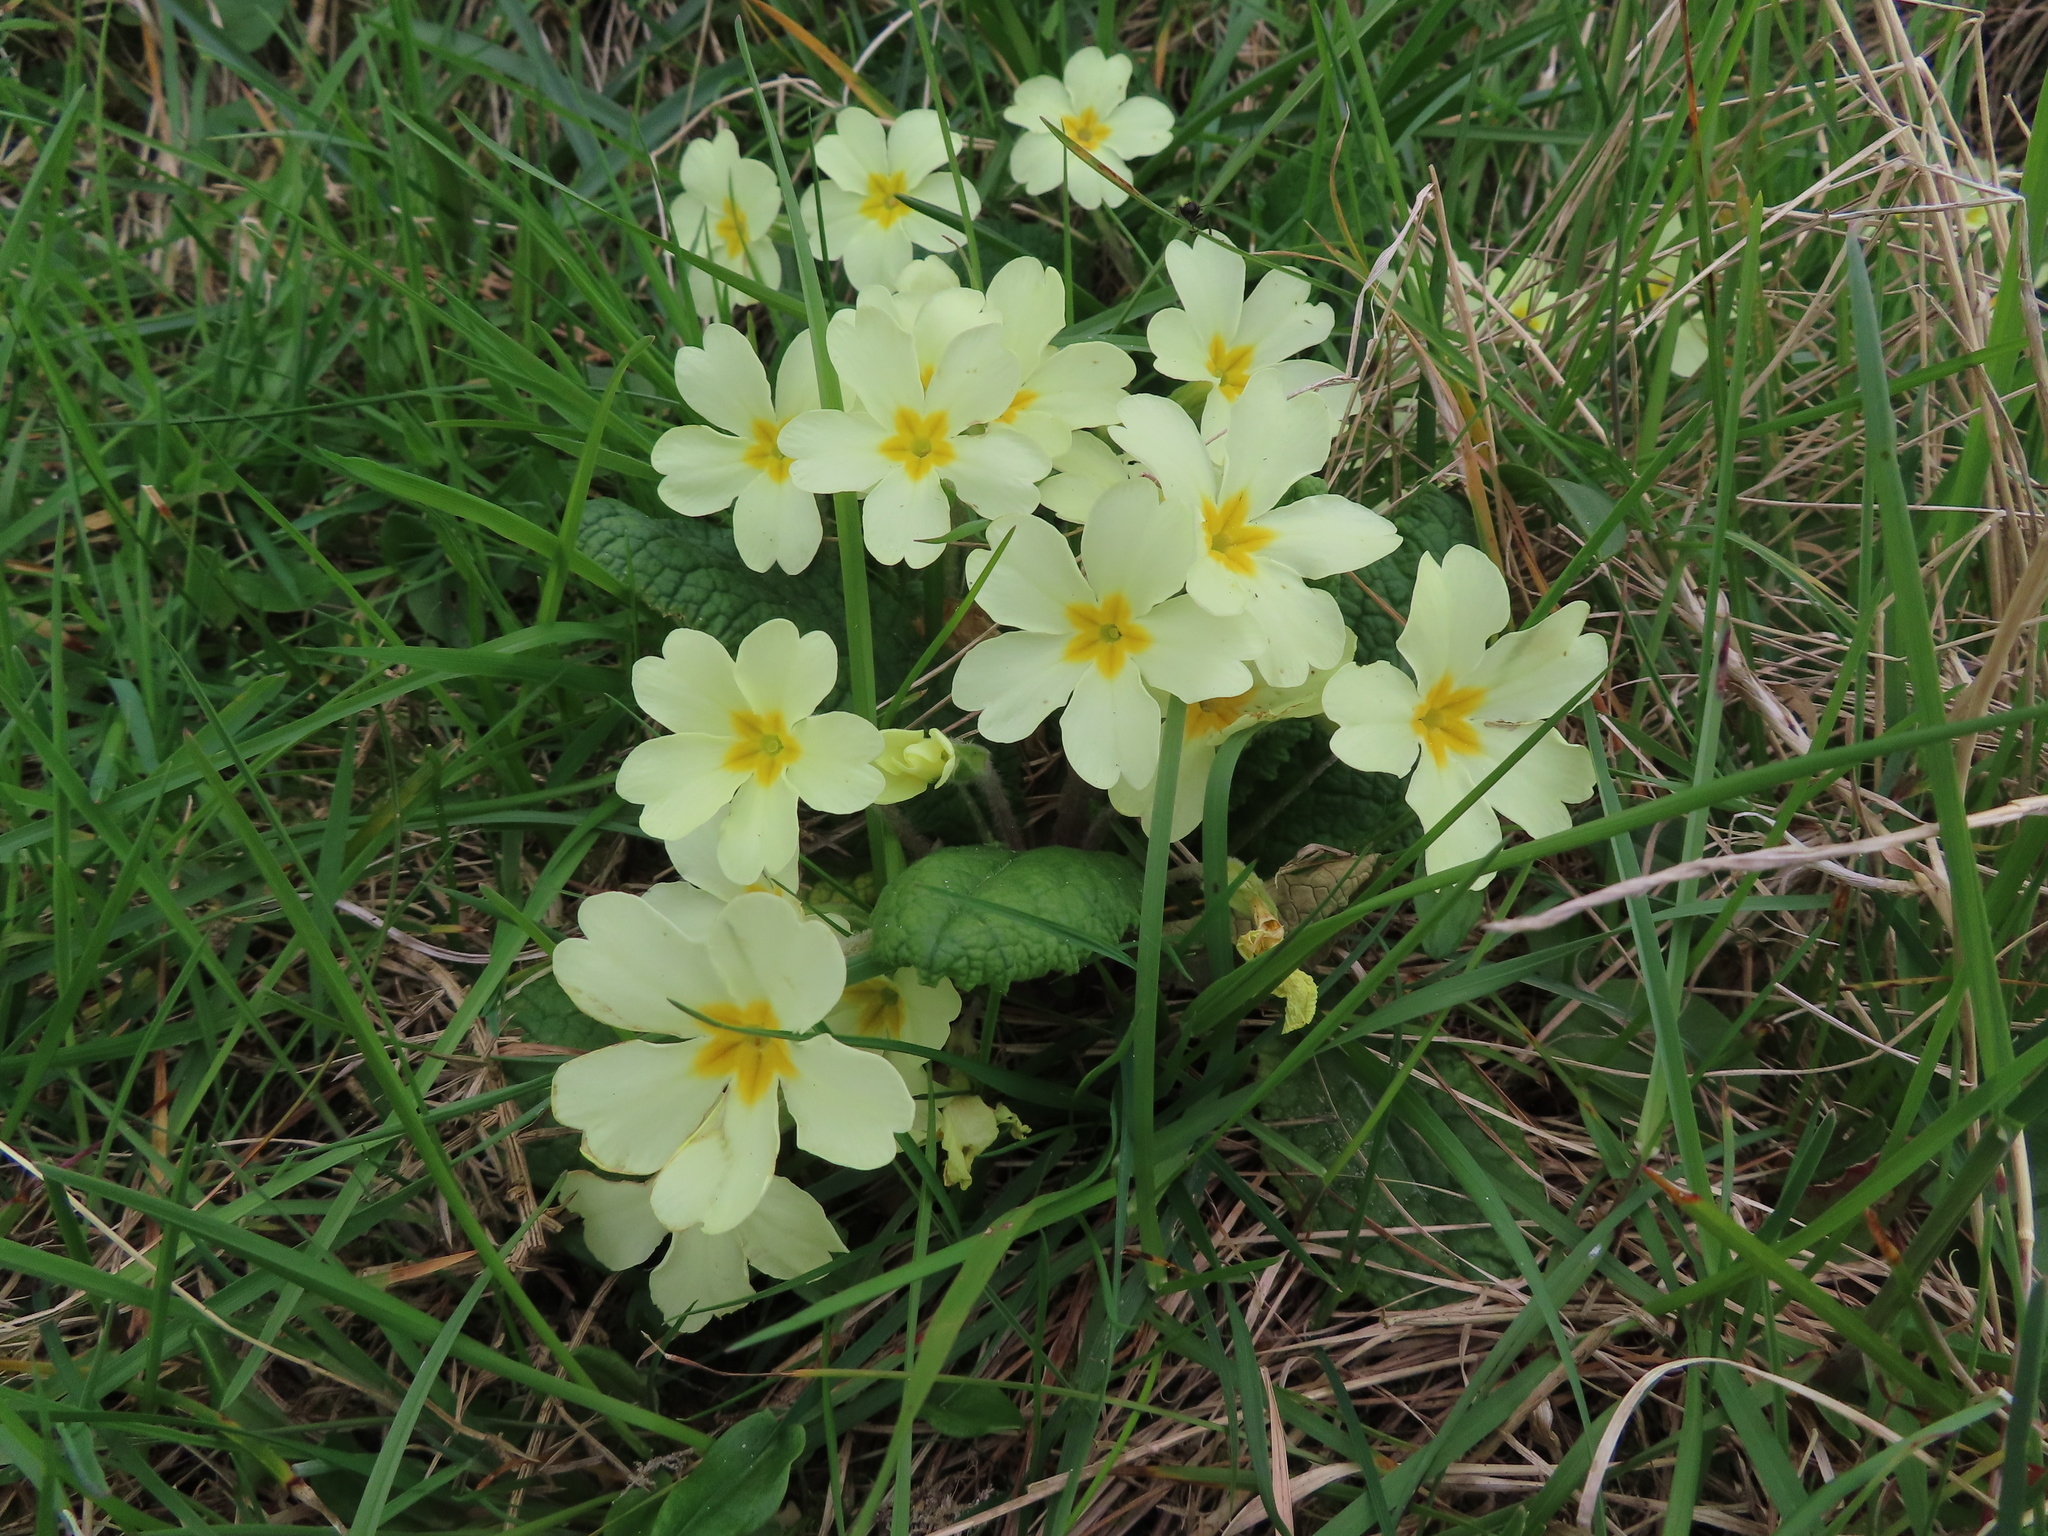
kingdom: Plantae
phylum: Tracheophyta
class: Magnoliopsida
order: Ericales
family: Primulaceae
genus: Primula
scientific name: Primula vulgaris
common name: Primrose
